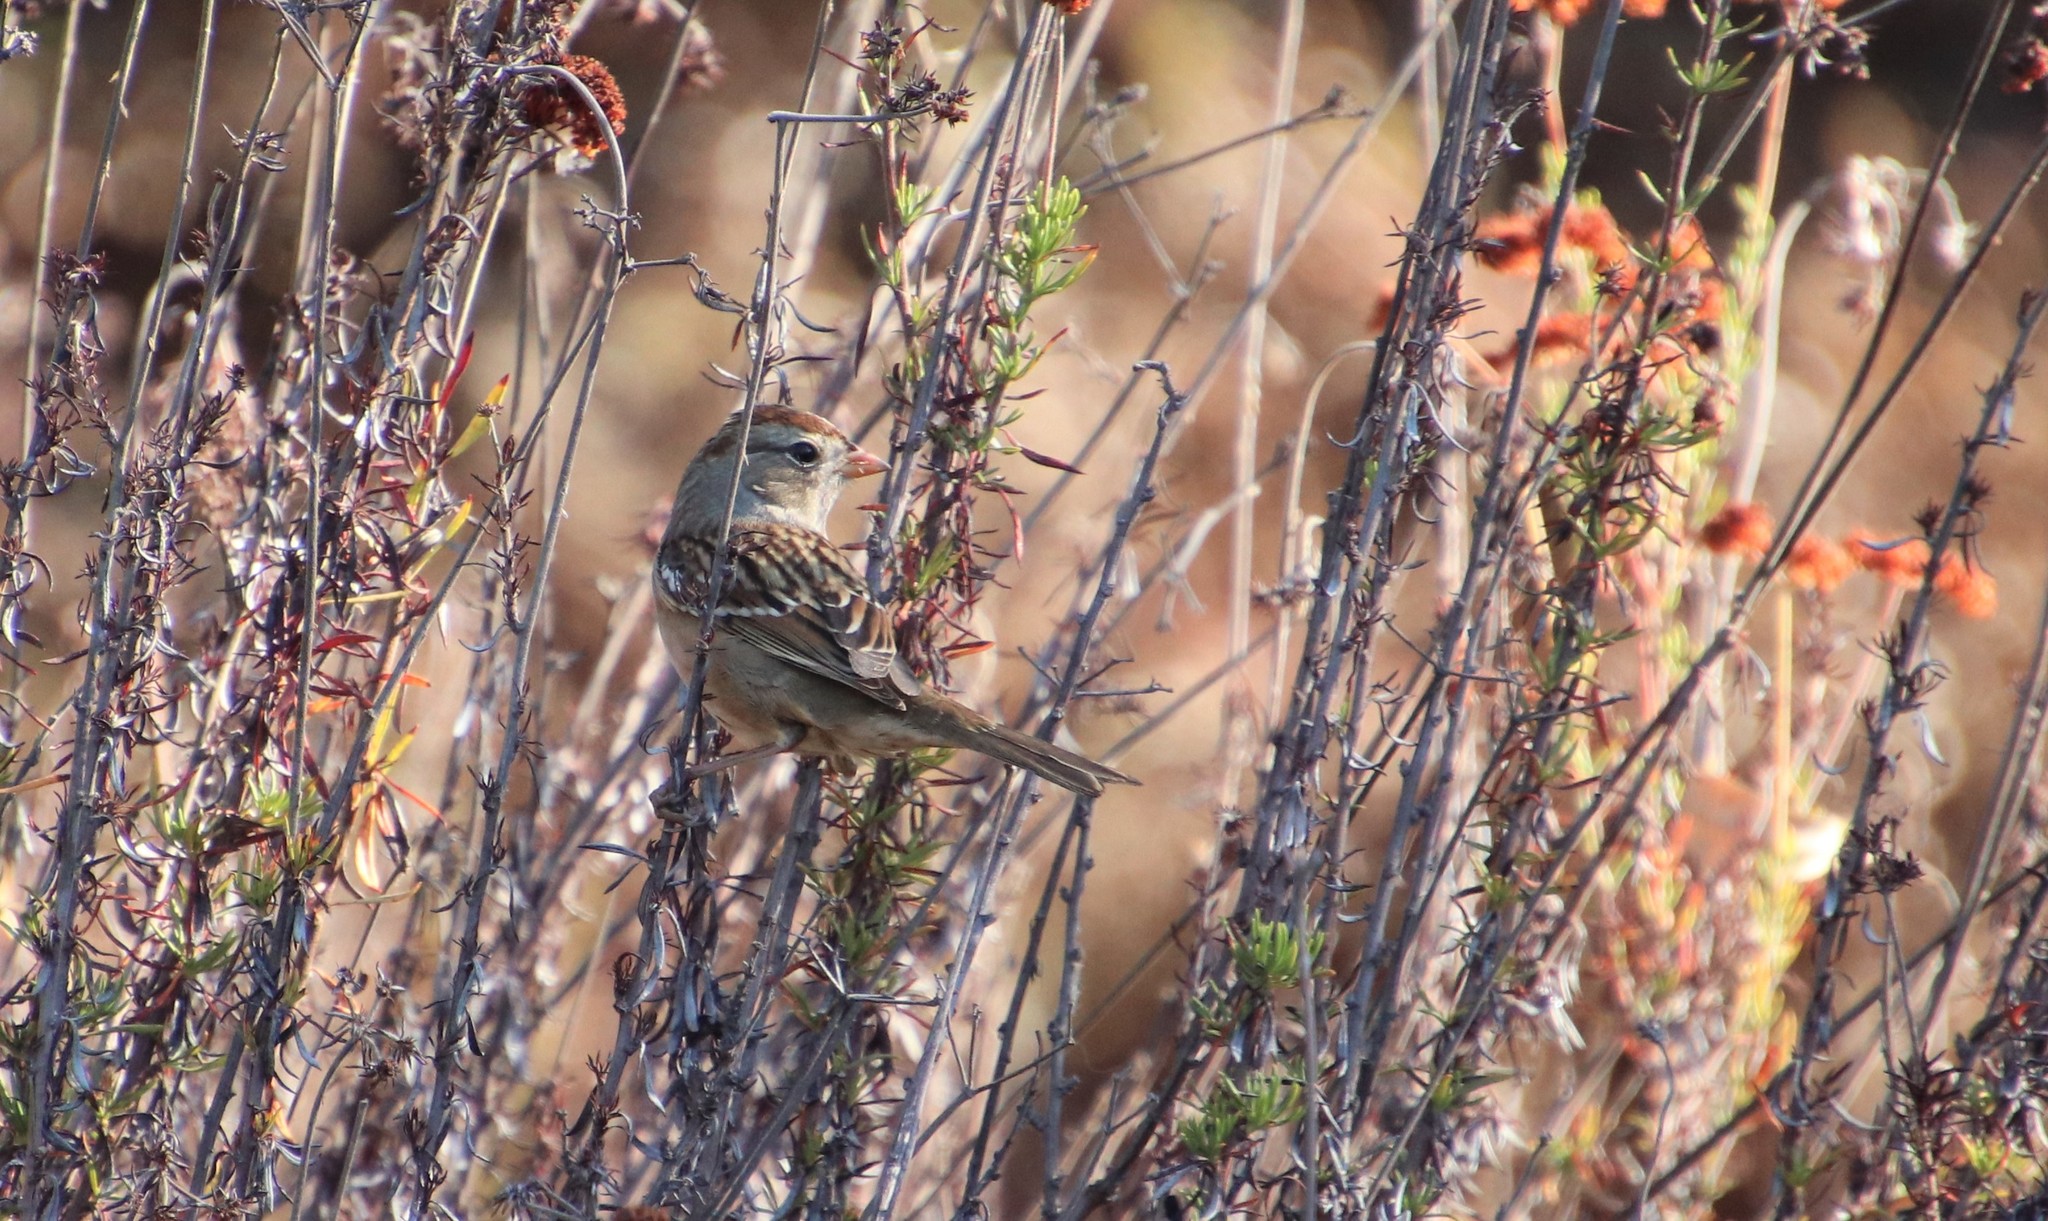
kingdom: Animalia
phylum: Chordata
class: Aves
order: Passeriformes
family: Passerellidae
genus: Zonotrichia
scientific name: Zonotrichia leucophrys
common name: White-crowned sparrow
